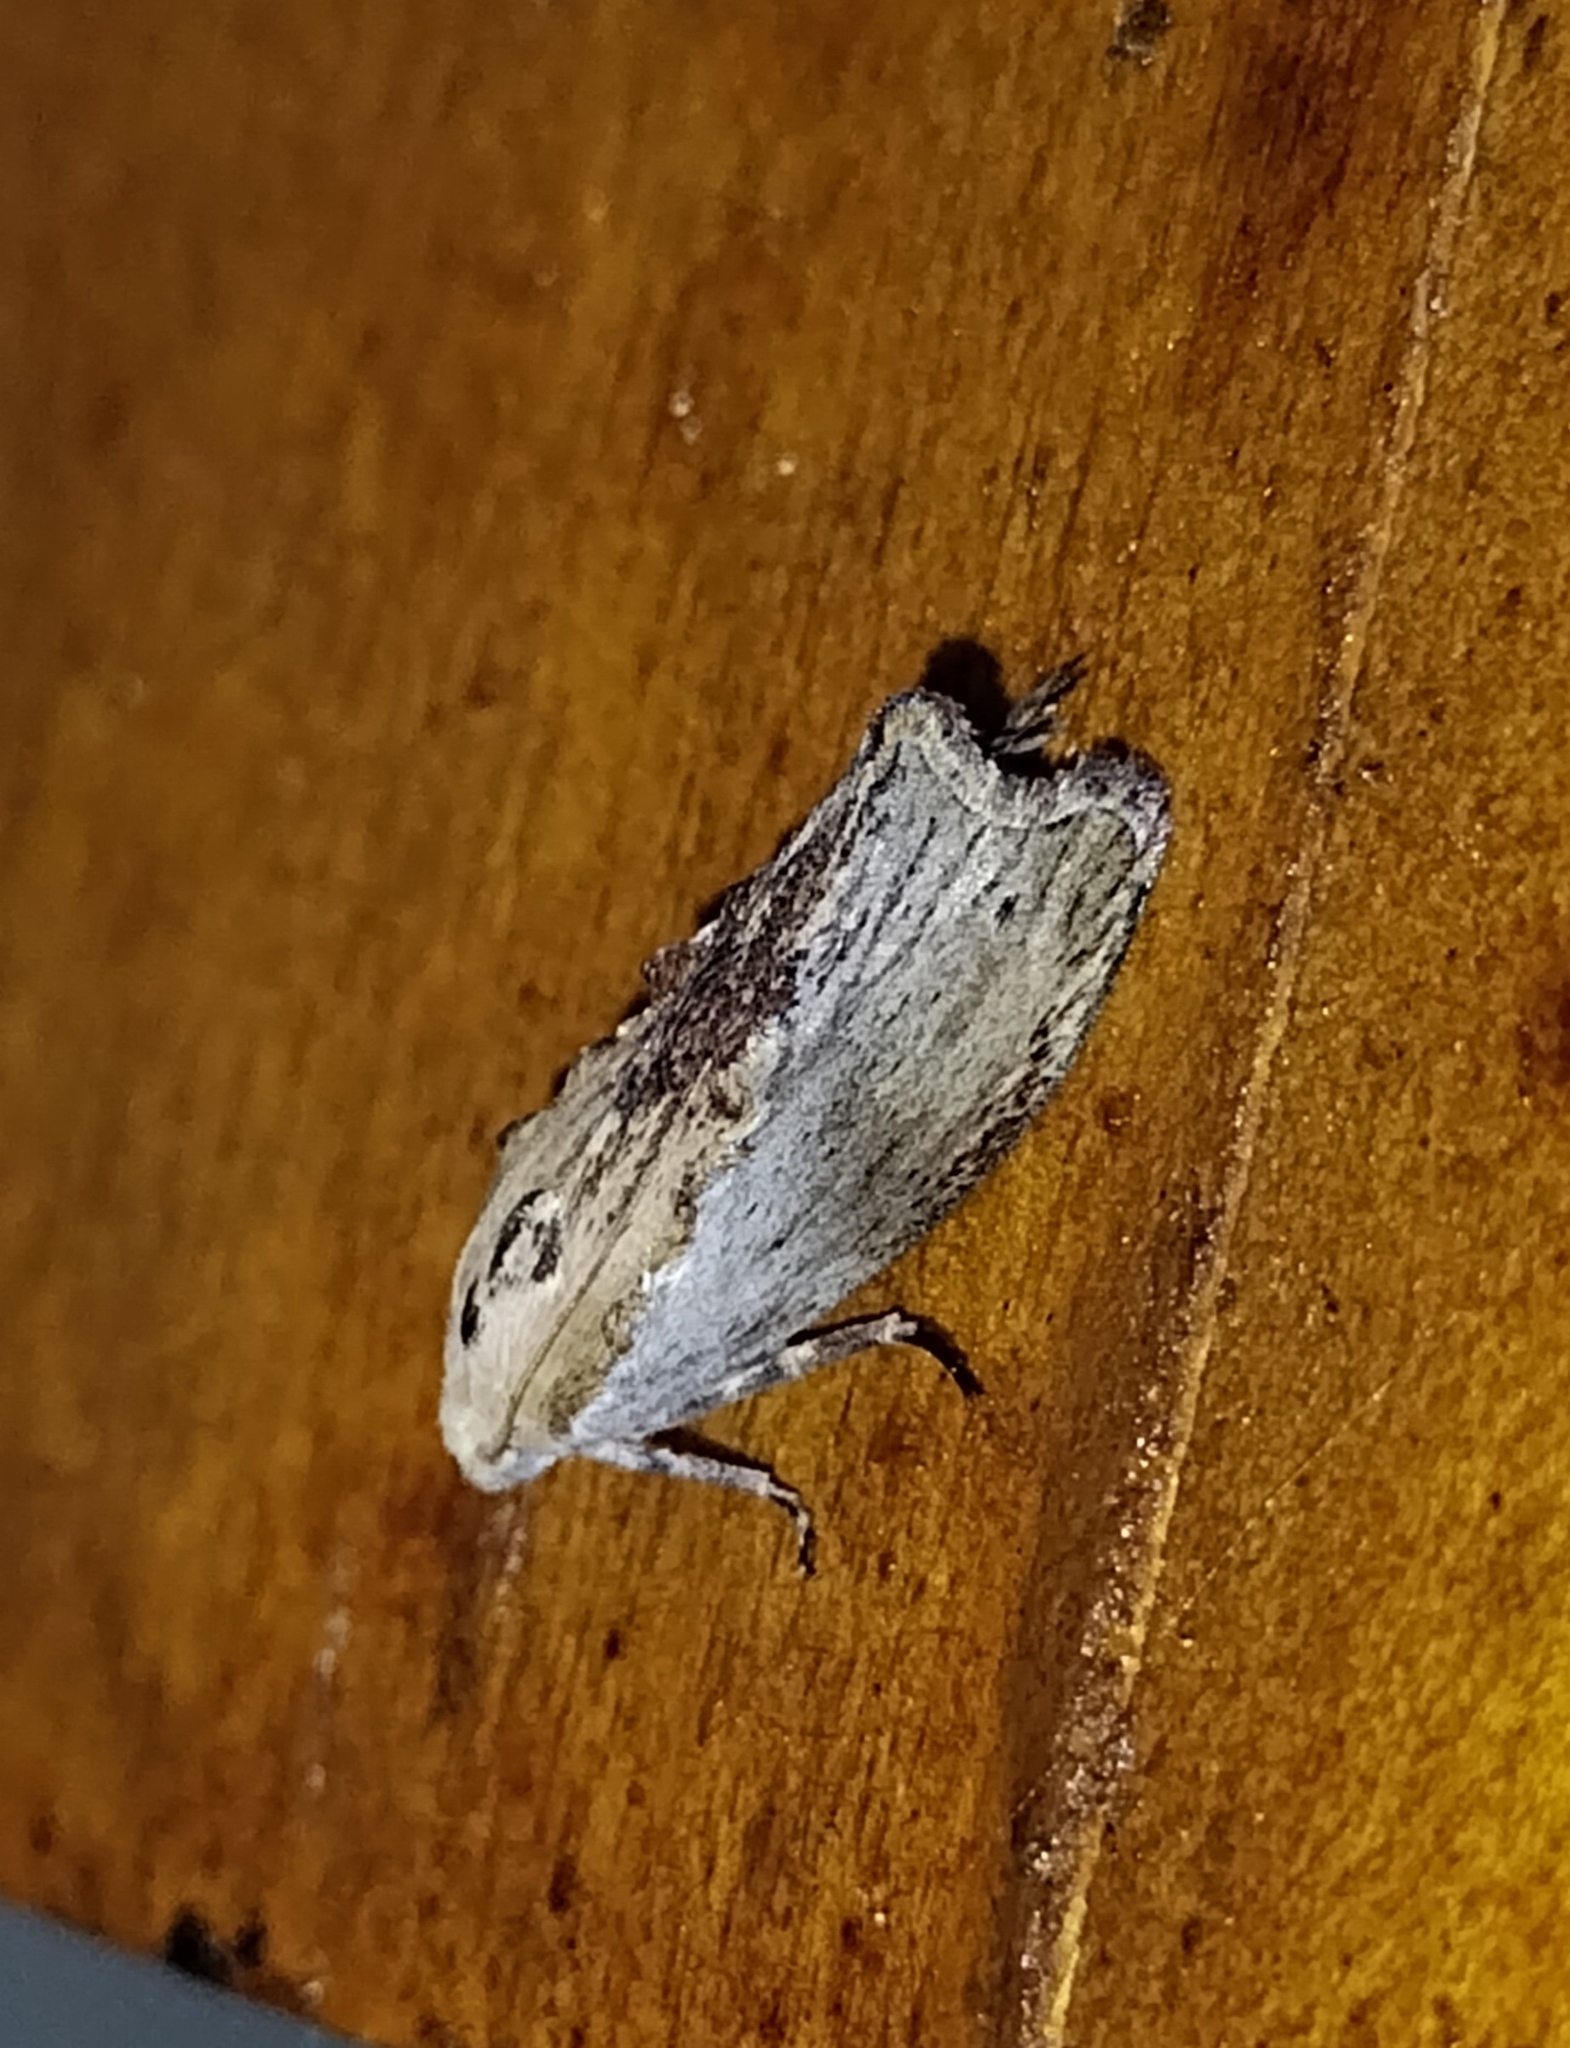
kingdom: Animalia
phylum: Arthropoda
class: Insecta
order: Lepidoptera
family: Pyralidae
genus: Galleria
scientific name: Galleria mellonella
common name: Greater wax moth
